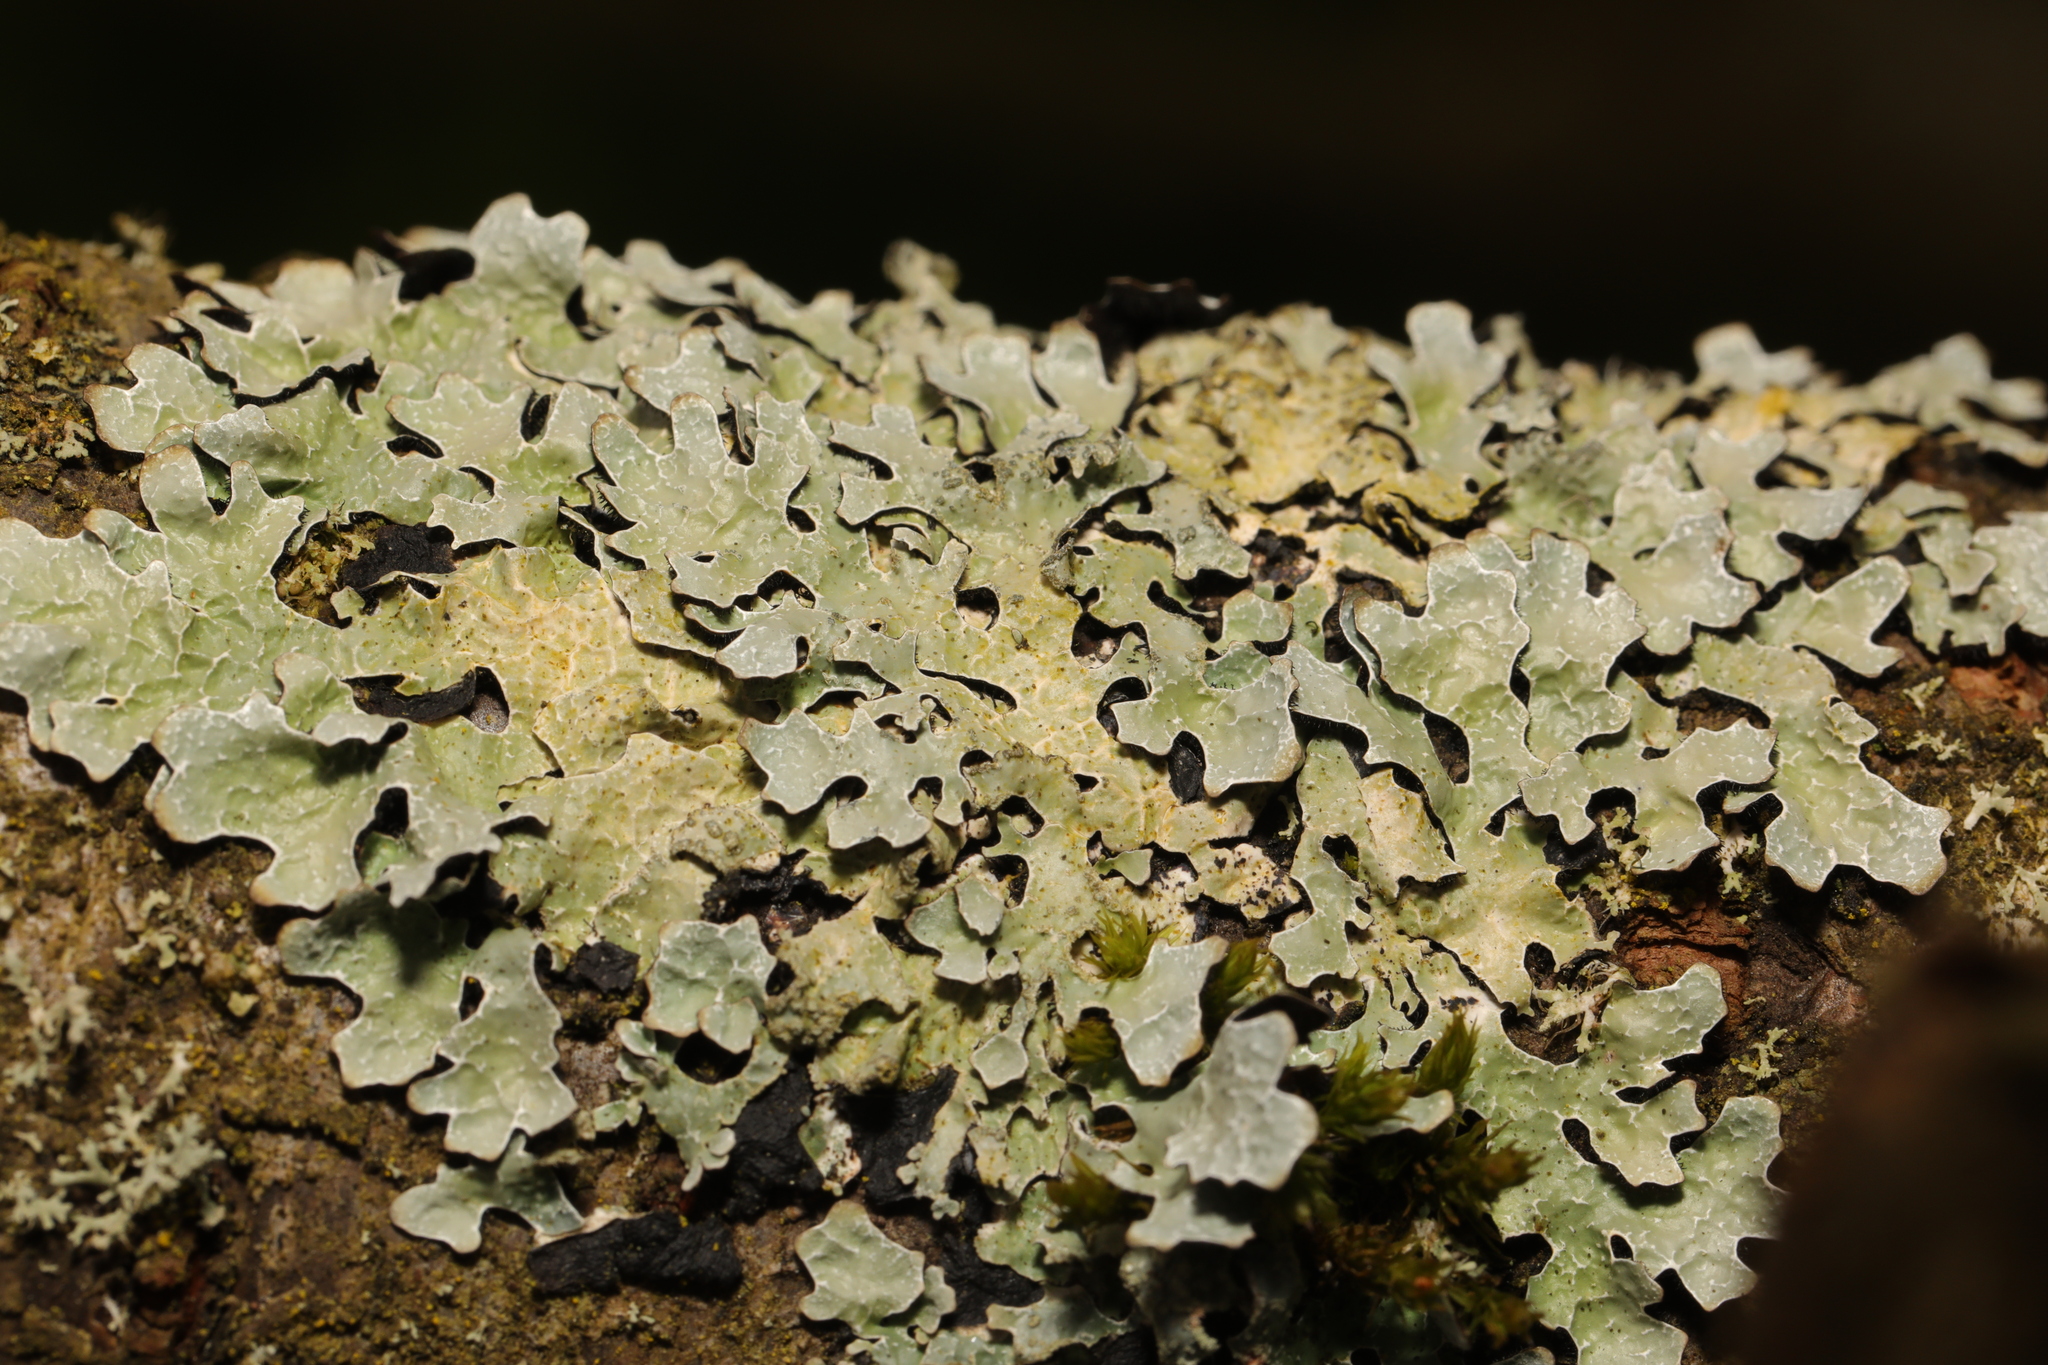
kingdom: Fungi
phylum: Ascomycota
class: Lecanoromycetes
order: Lecanorales
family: Parmeliaceae
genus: Parmelia
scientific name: Parmelia sulcata
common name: Netted shield lichen
